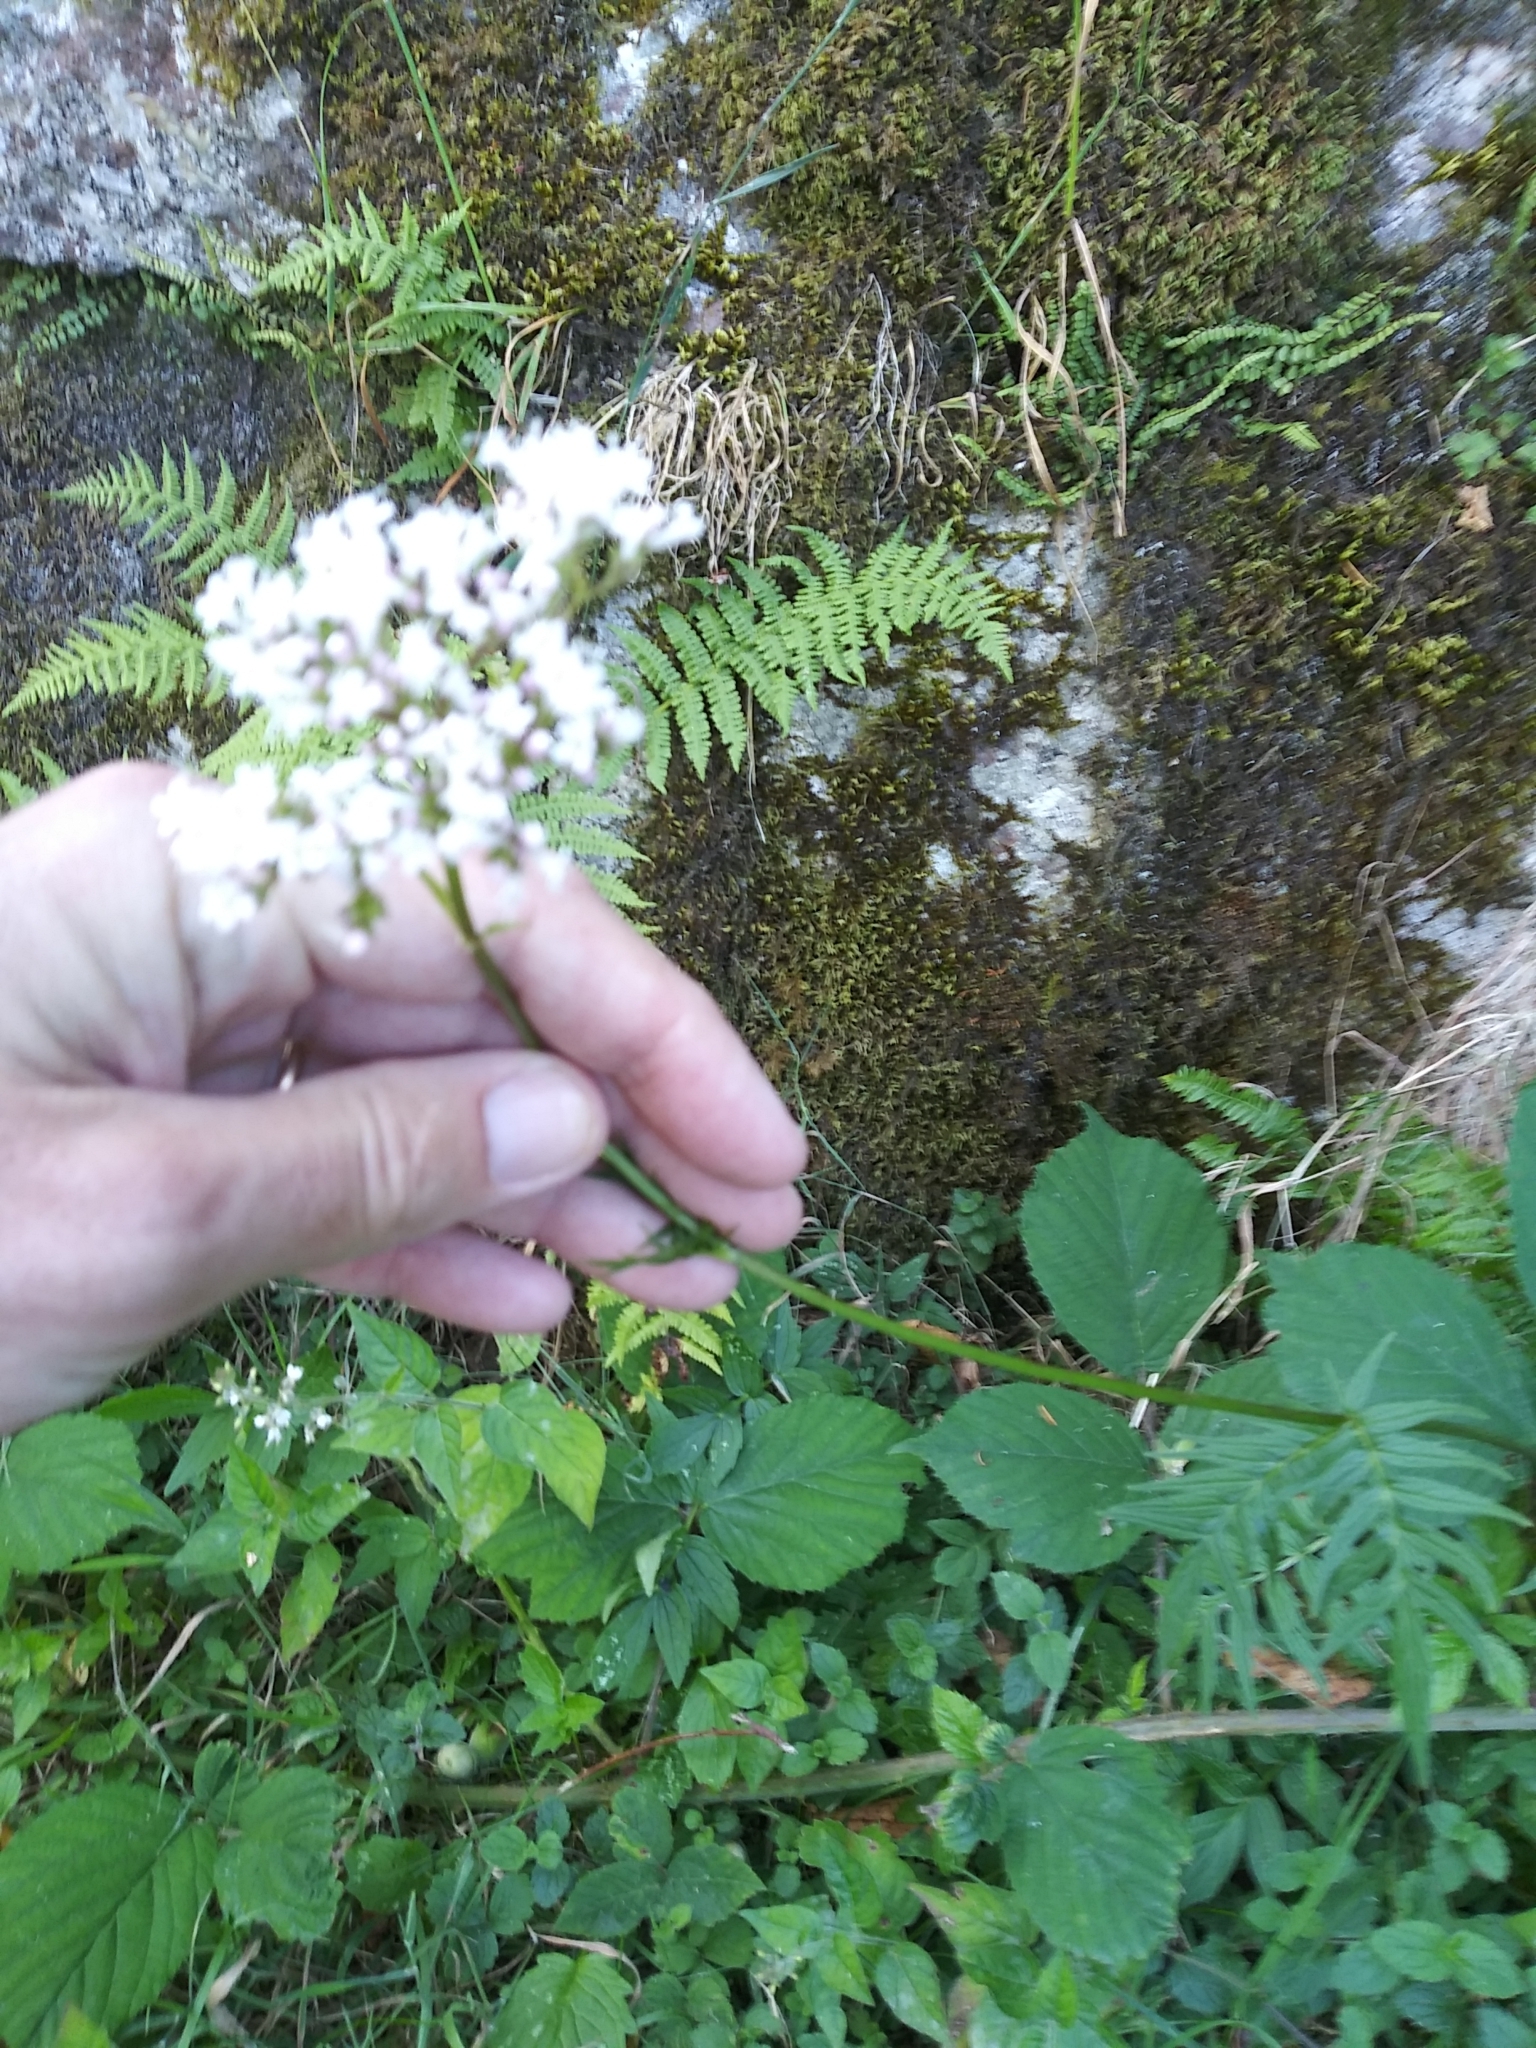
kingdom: Plantae
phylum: Tracheophyta
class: Magnoliopsida
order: Dipsacales
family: Caprifoliaceae
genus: Valeriana
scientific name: Valeriana officinalis
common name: Common valerian
